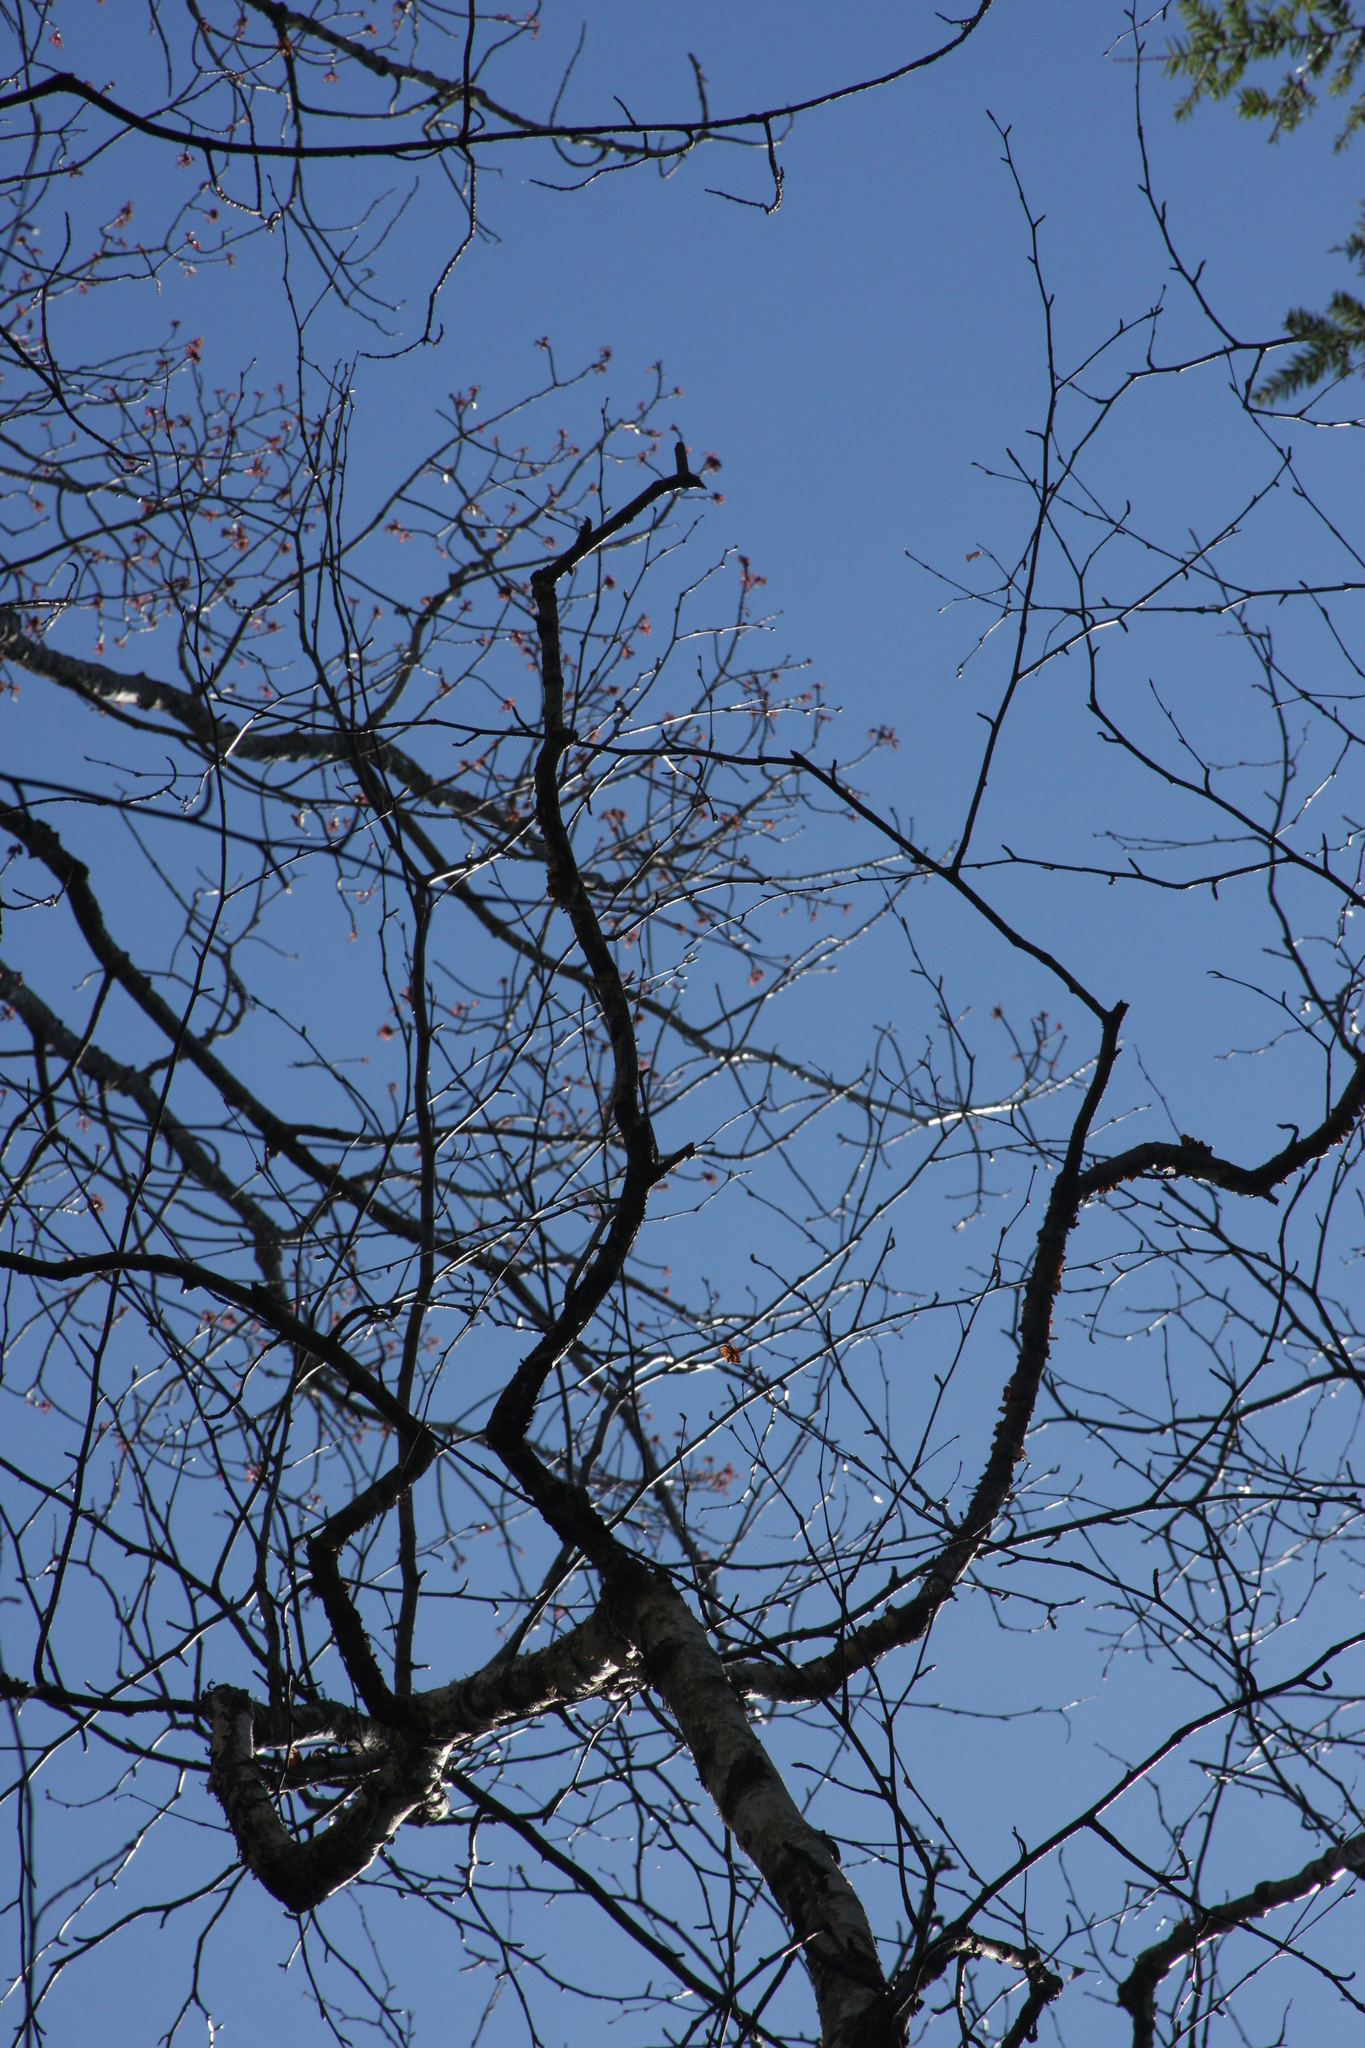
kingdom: Plantae
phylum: Tracheophyta
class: Magnoliopsida
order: Fagales
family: Betulaceae
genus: Betula
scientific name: Betula papyrifera
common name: Paper birch
